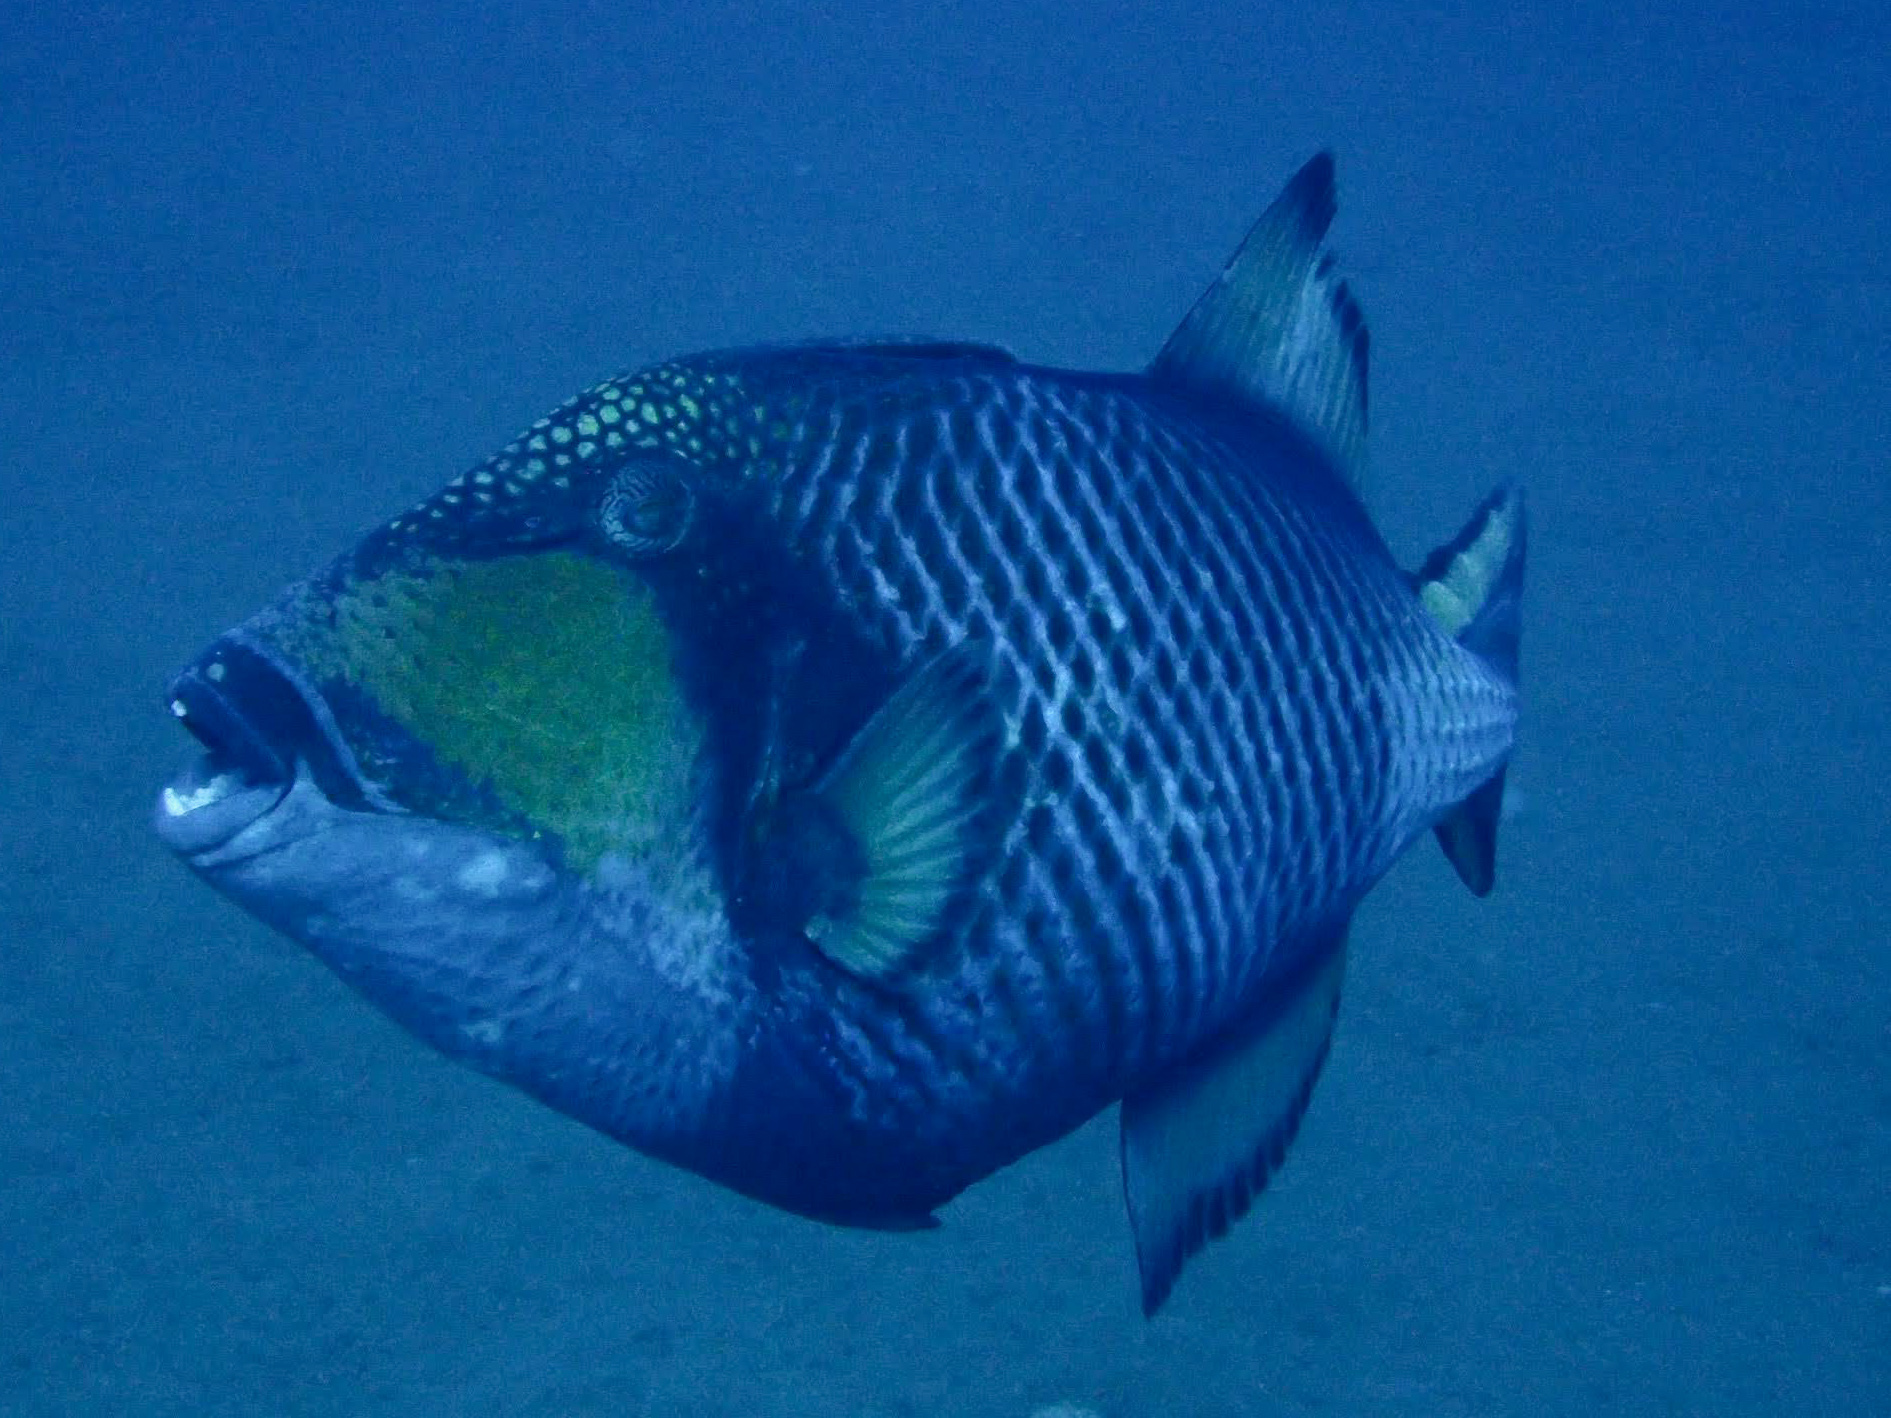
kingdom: Animalia
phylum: Chordata
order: Tetraodontiformes
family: Balistidae
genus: Balistoides
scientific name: Balistoides viridescens
